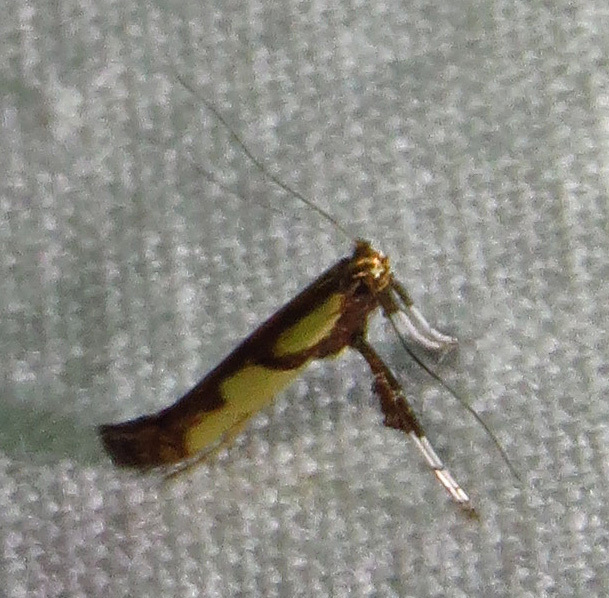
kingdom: Animalia
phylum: Arthropoda
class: Insecta
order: Lepidoptera
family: Gracillariidae
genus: Caloptilia
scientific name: Caloptilia blandella
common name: Walnut caloptilia moth
